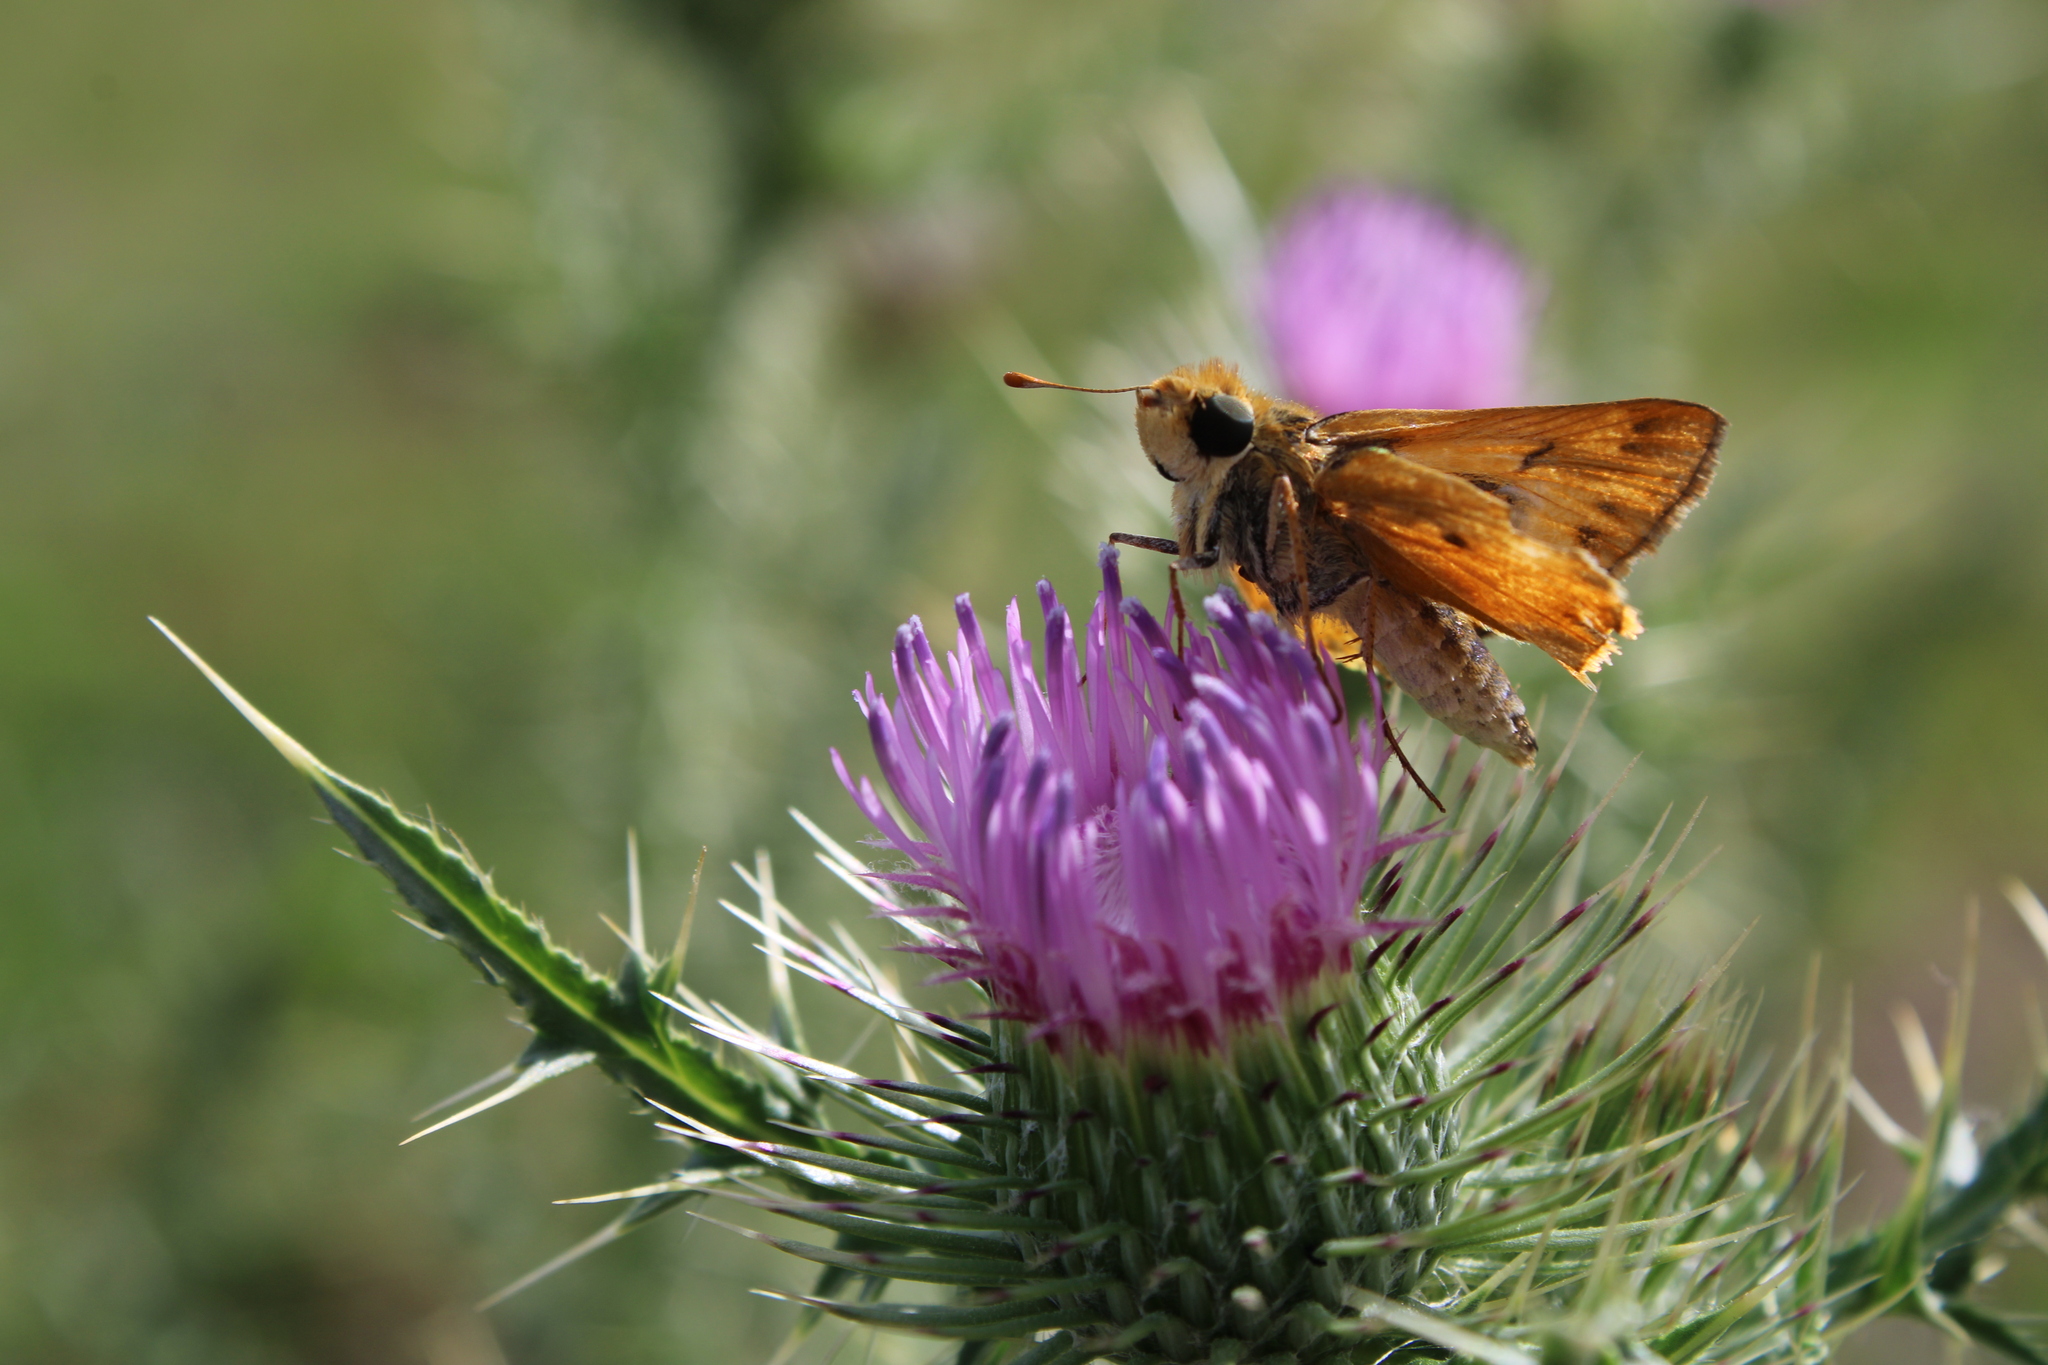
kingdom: Animalia
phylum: Arthropoda
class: Insecta
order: Lepidoptera
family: Hesperiidae
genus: Hylephila
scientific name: Hylephila phyleus
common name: Fiery skipper
